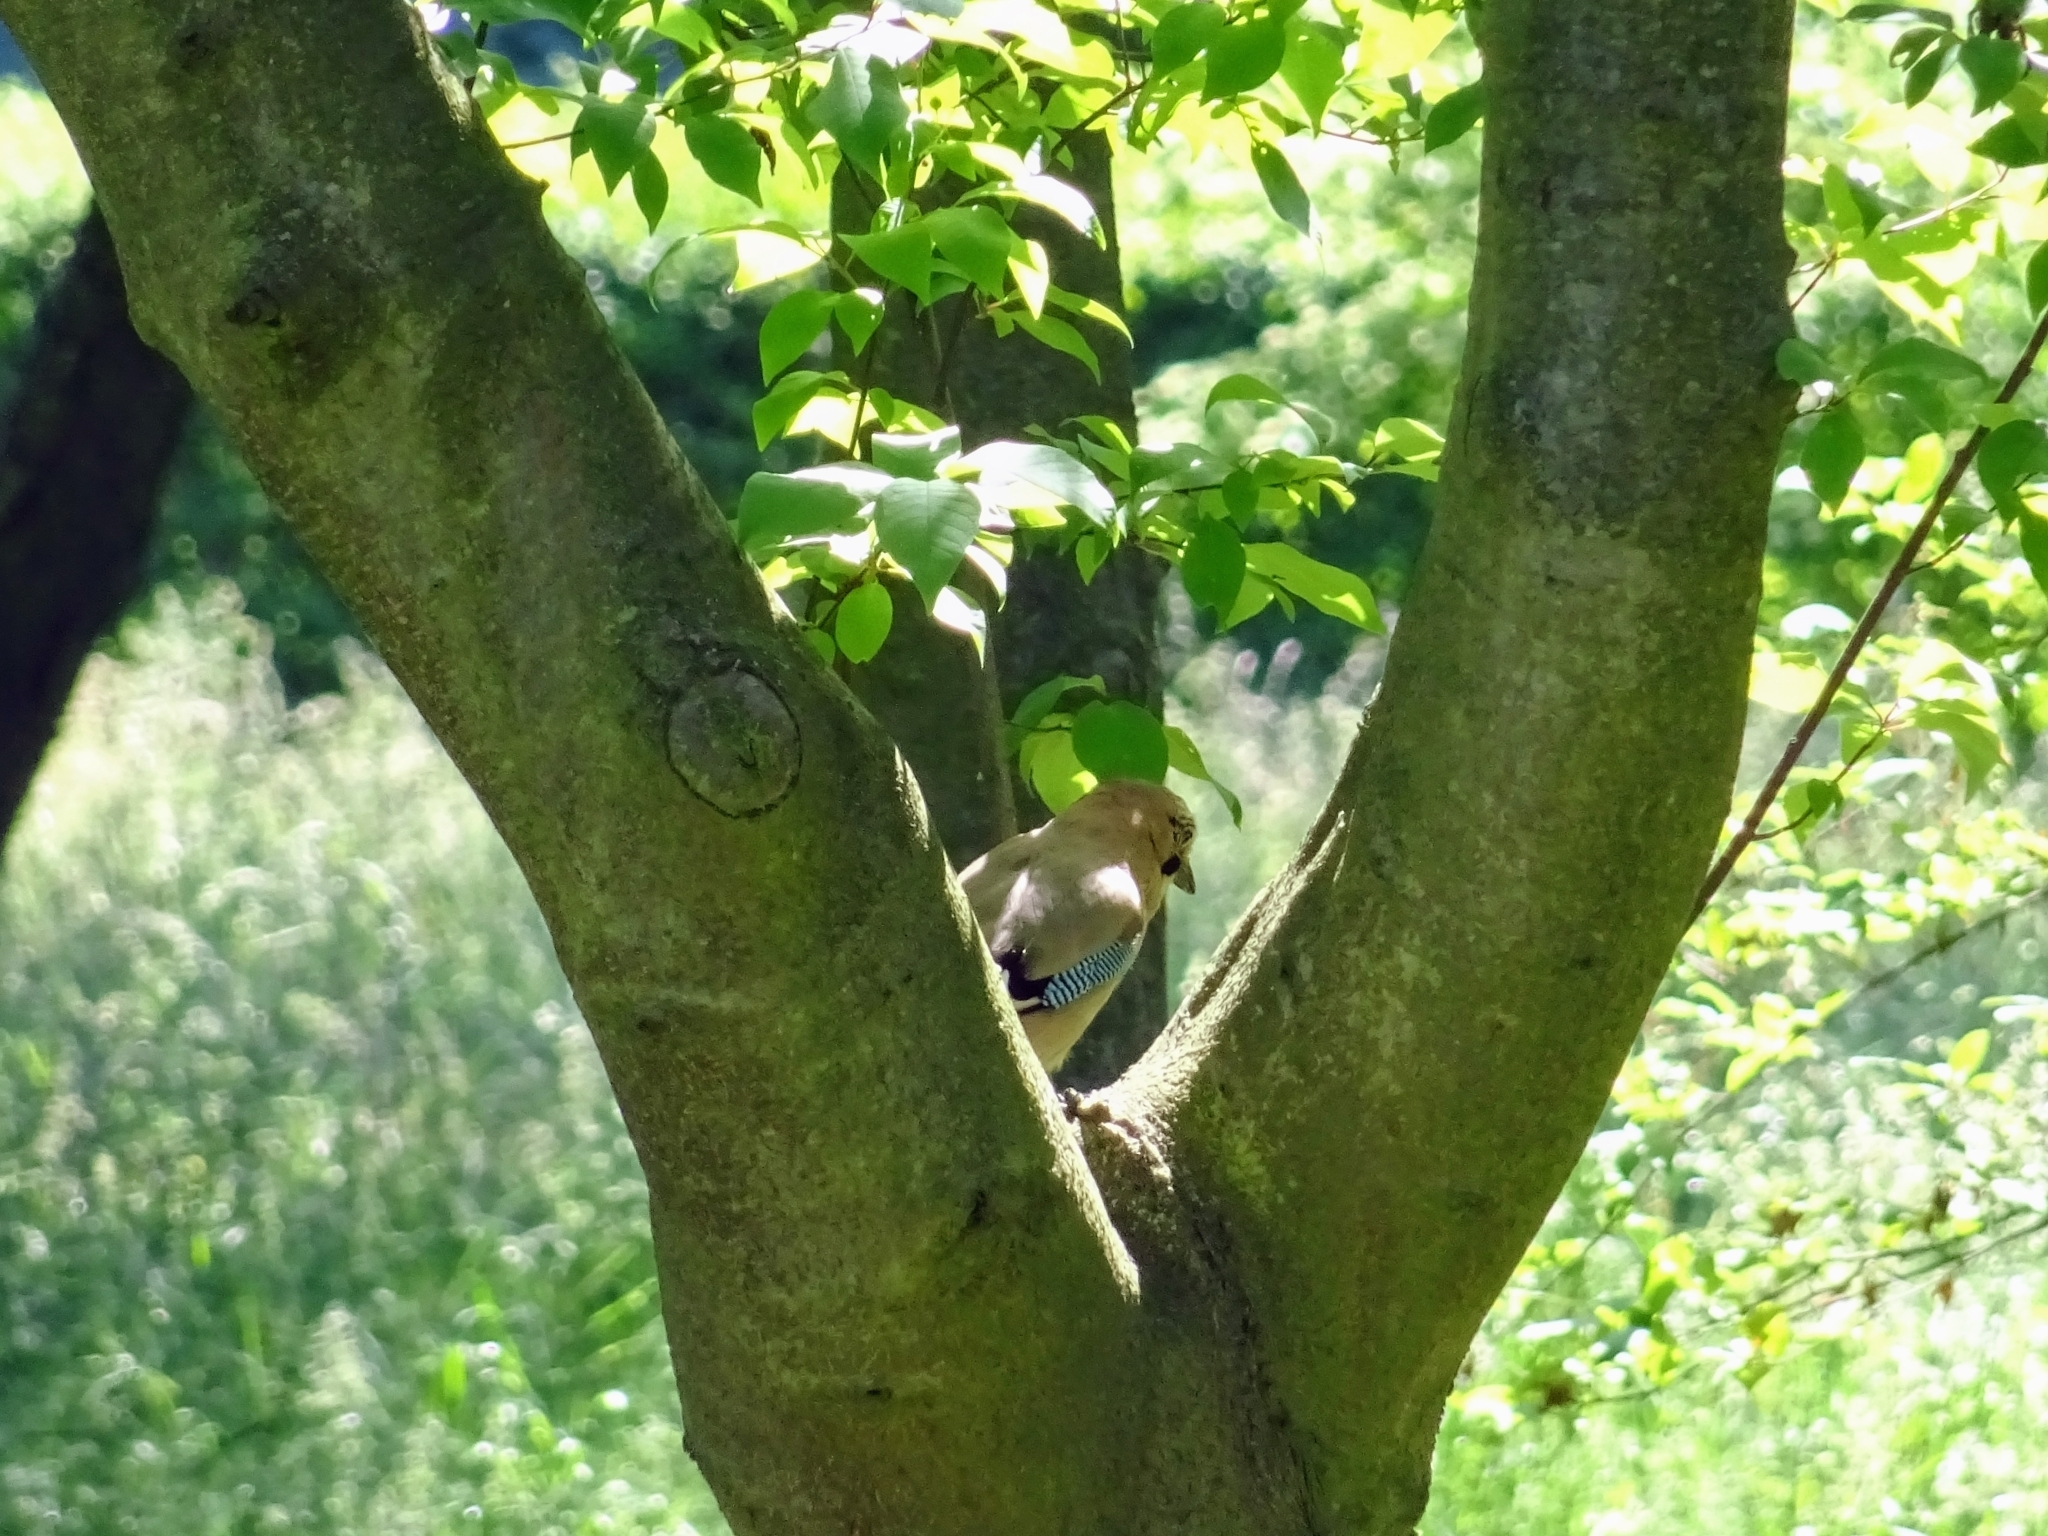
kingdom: Animalia
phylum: Chordata
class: Aves
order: Passeriformes
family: Corvidae
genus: Garrulus
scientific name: Garrulus glandarius
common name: Eurasian jay
